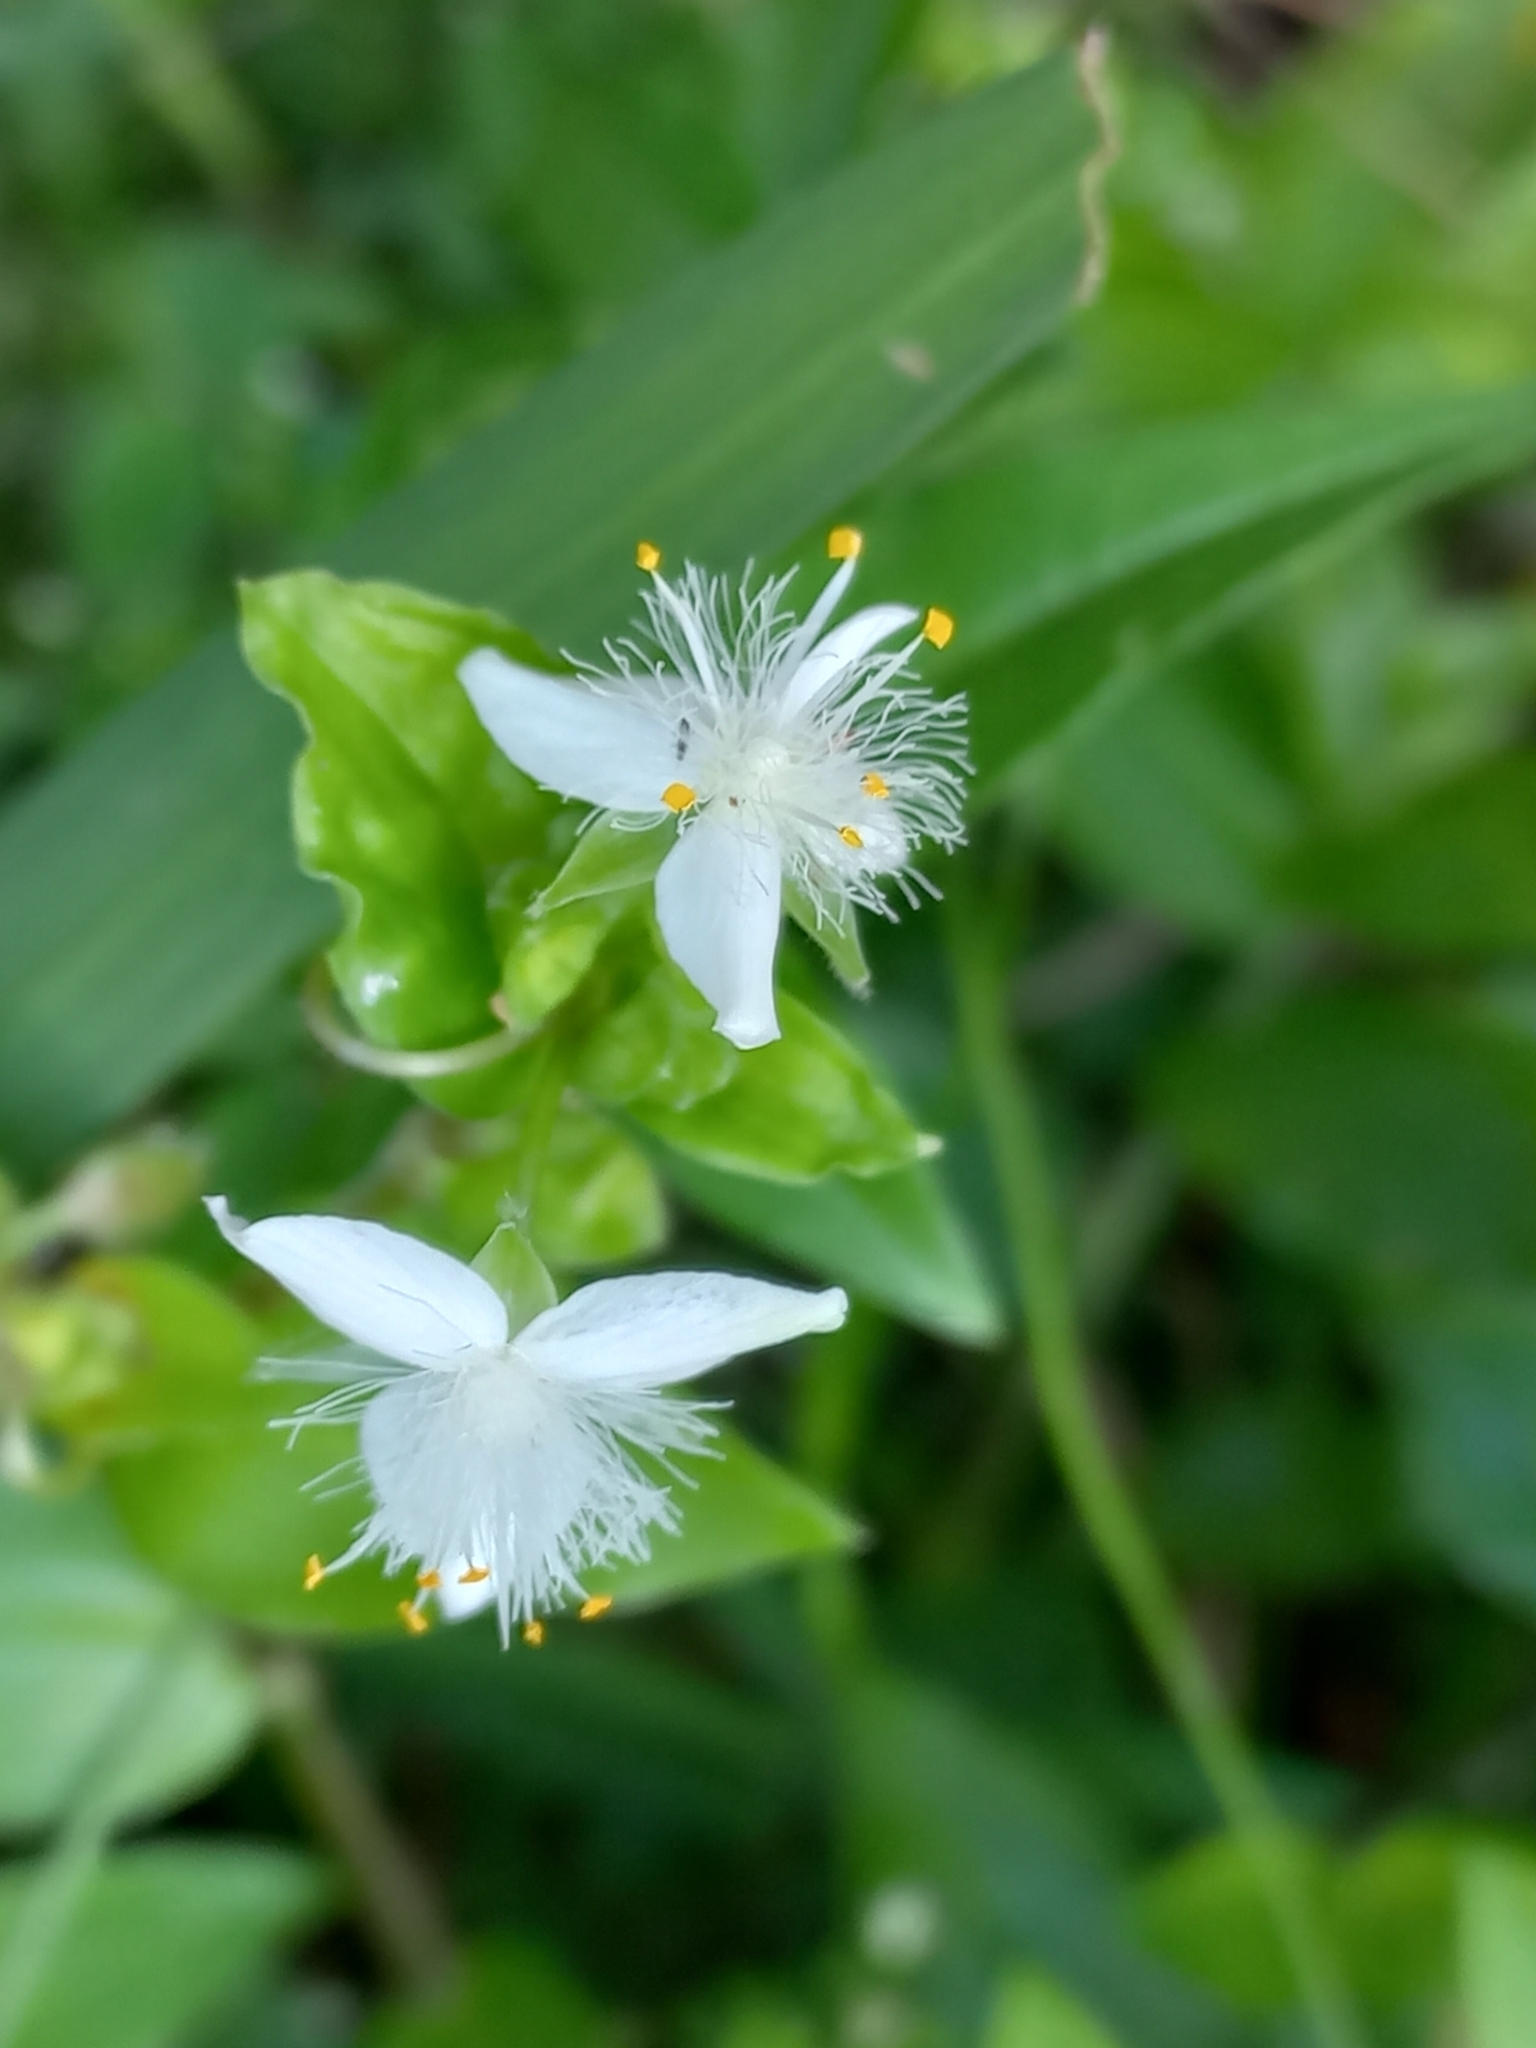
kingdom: Plantae
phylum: Tracheophyta
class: Liliopsida
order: Commelinales
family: Commelinaceae
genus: Tradescantia
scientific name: Tradescantia fluminensis
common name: Wandering-jew
